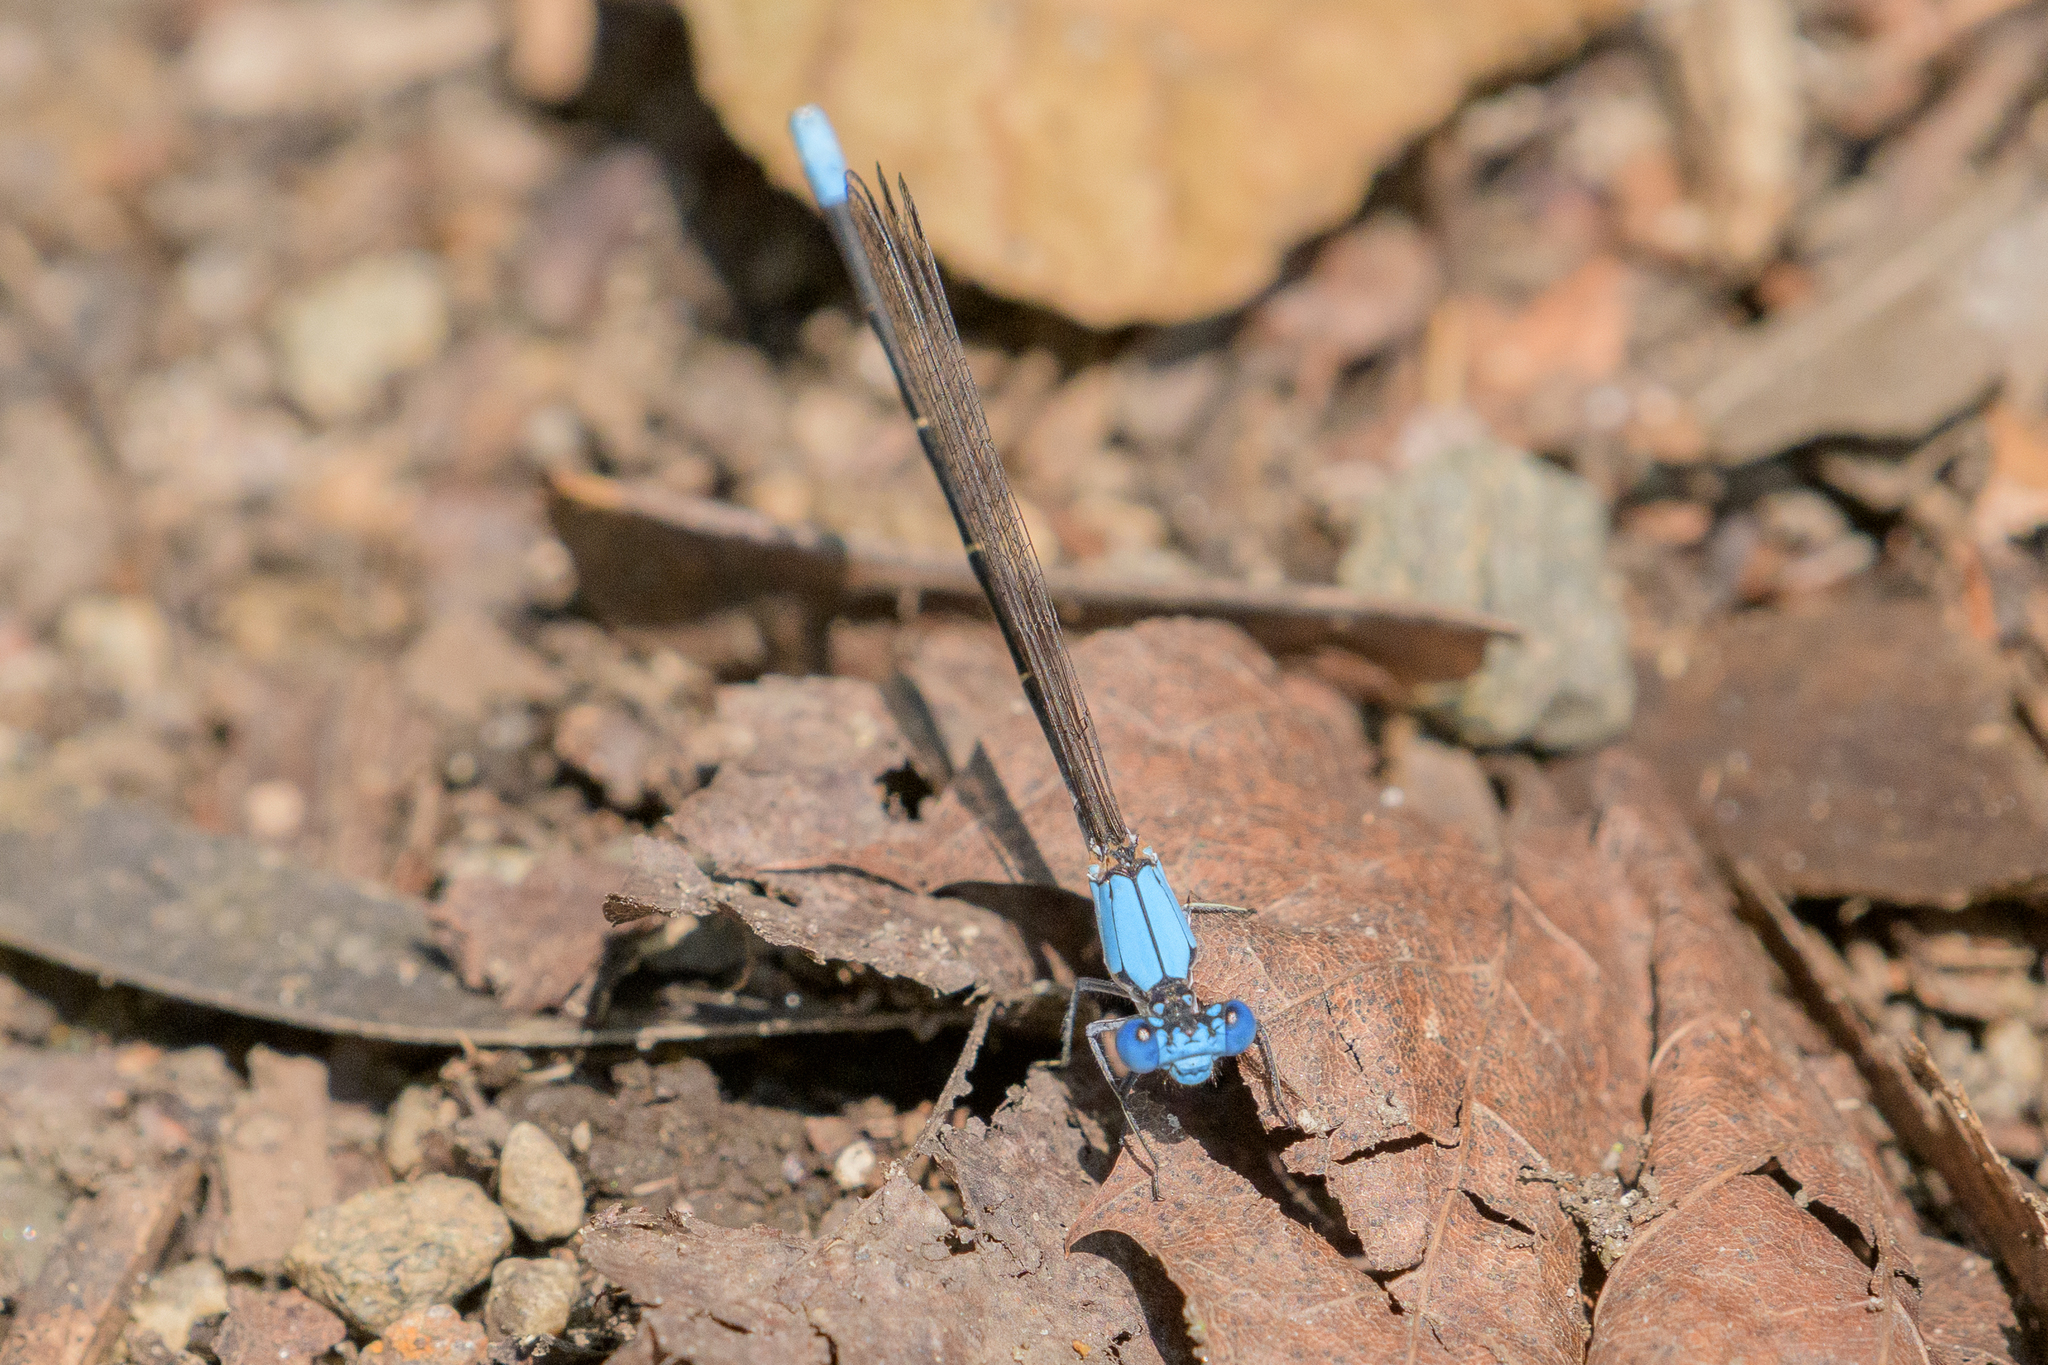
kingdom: Animalia
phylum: Arthropoda
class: Insecta
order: Odonata
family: Coenagrionidae
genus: Argia
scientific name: Argia apicalis
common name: Blue-fronted dancer
